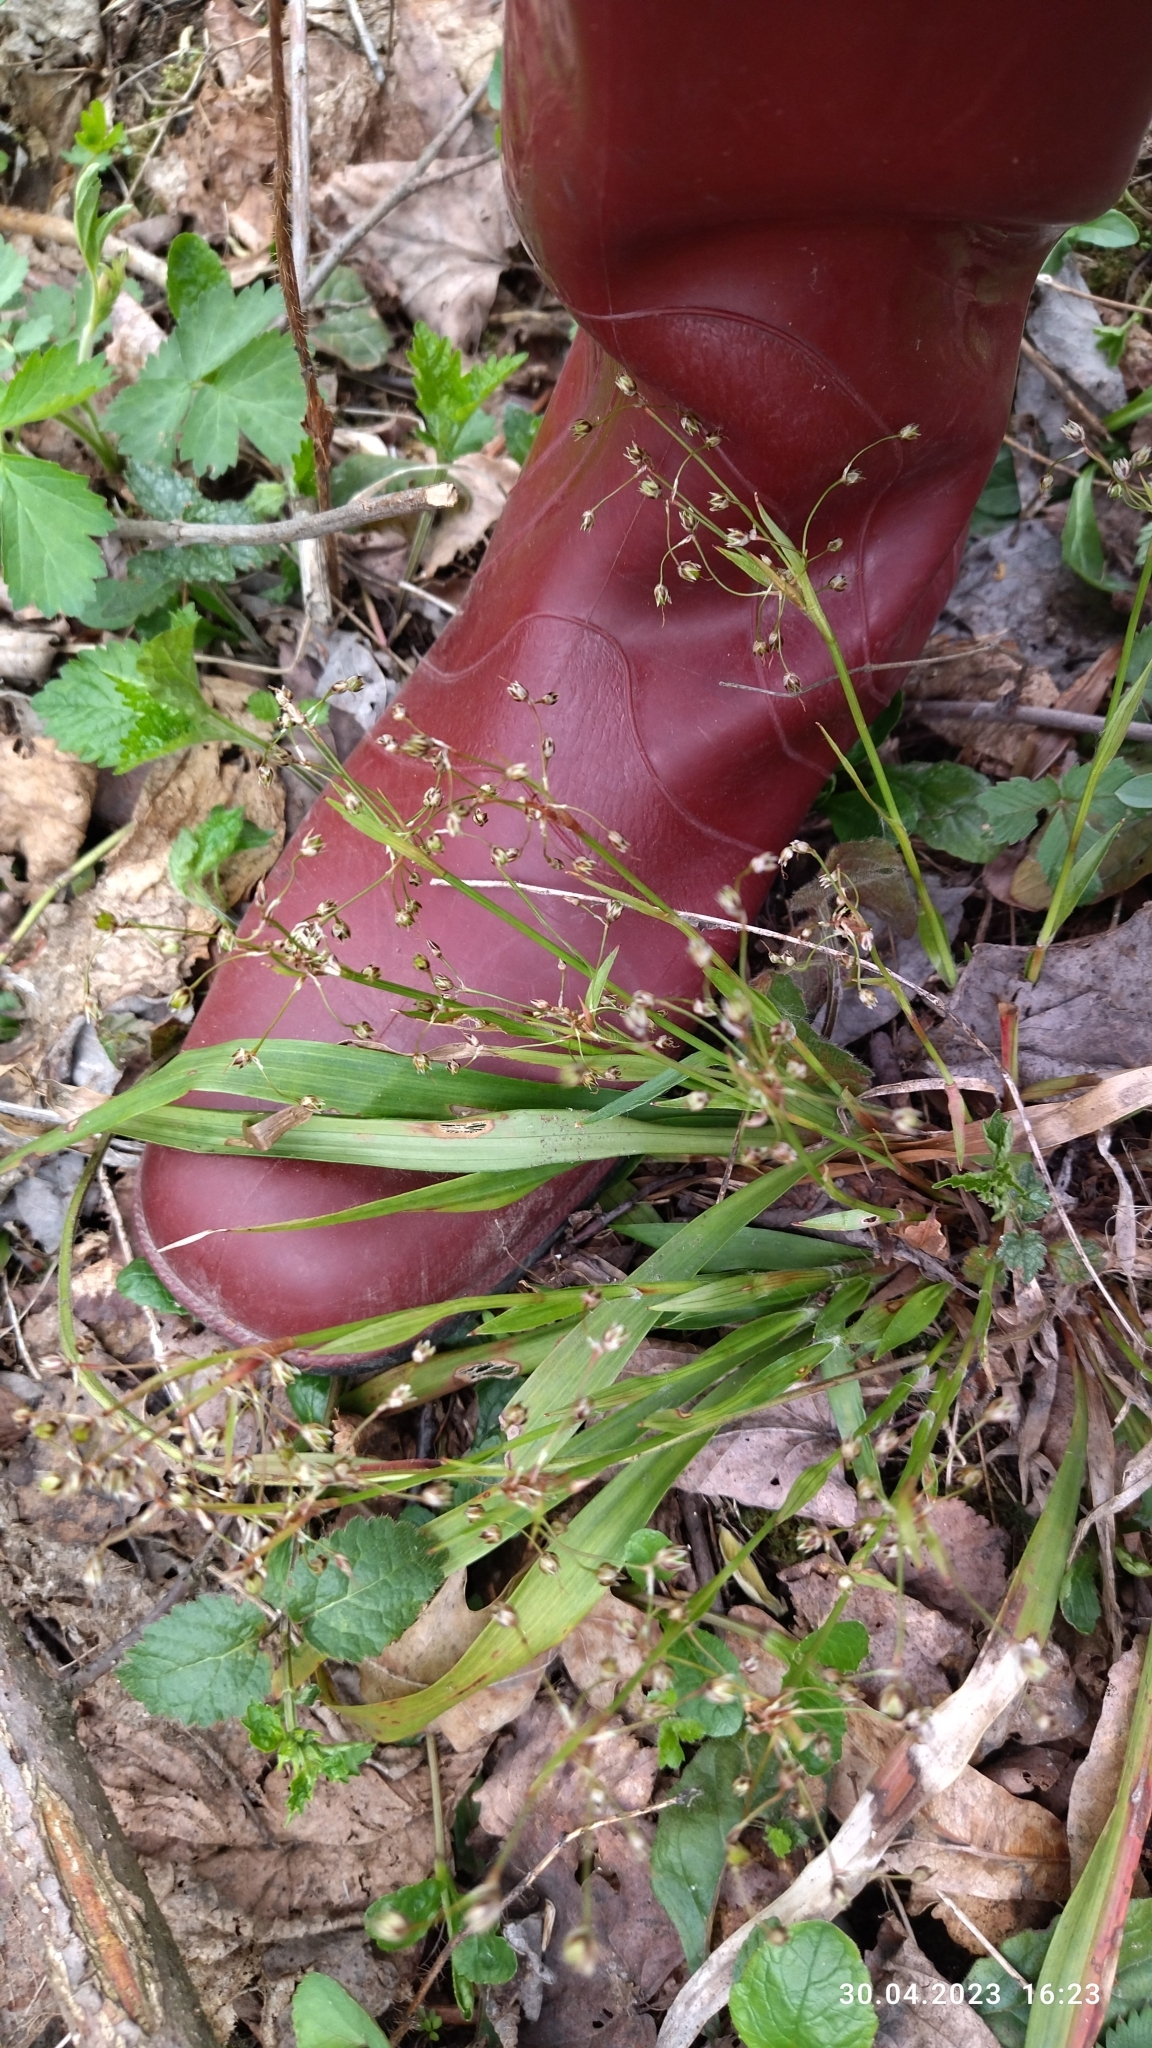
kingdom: Plantae
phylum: Tracheophyta
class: Liliopsida
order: Poales
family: Juncaceae
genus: Luzula
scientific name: Luzula pilosa
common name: Hairy wood-rush
